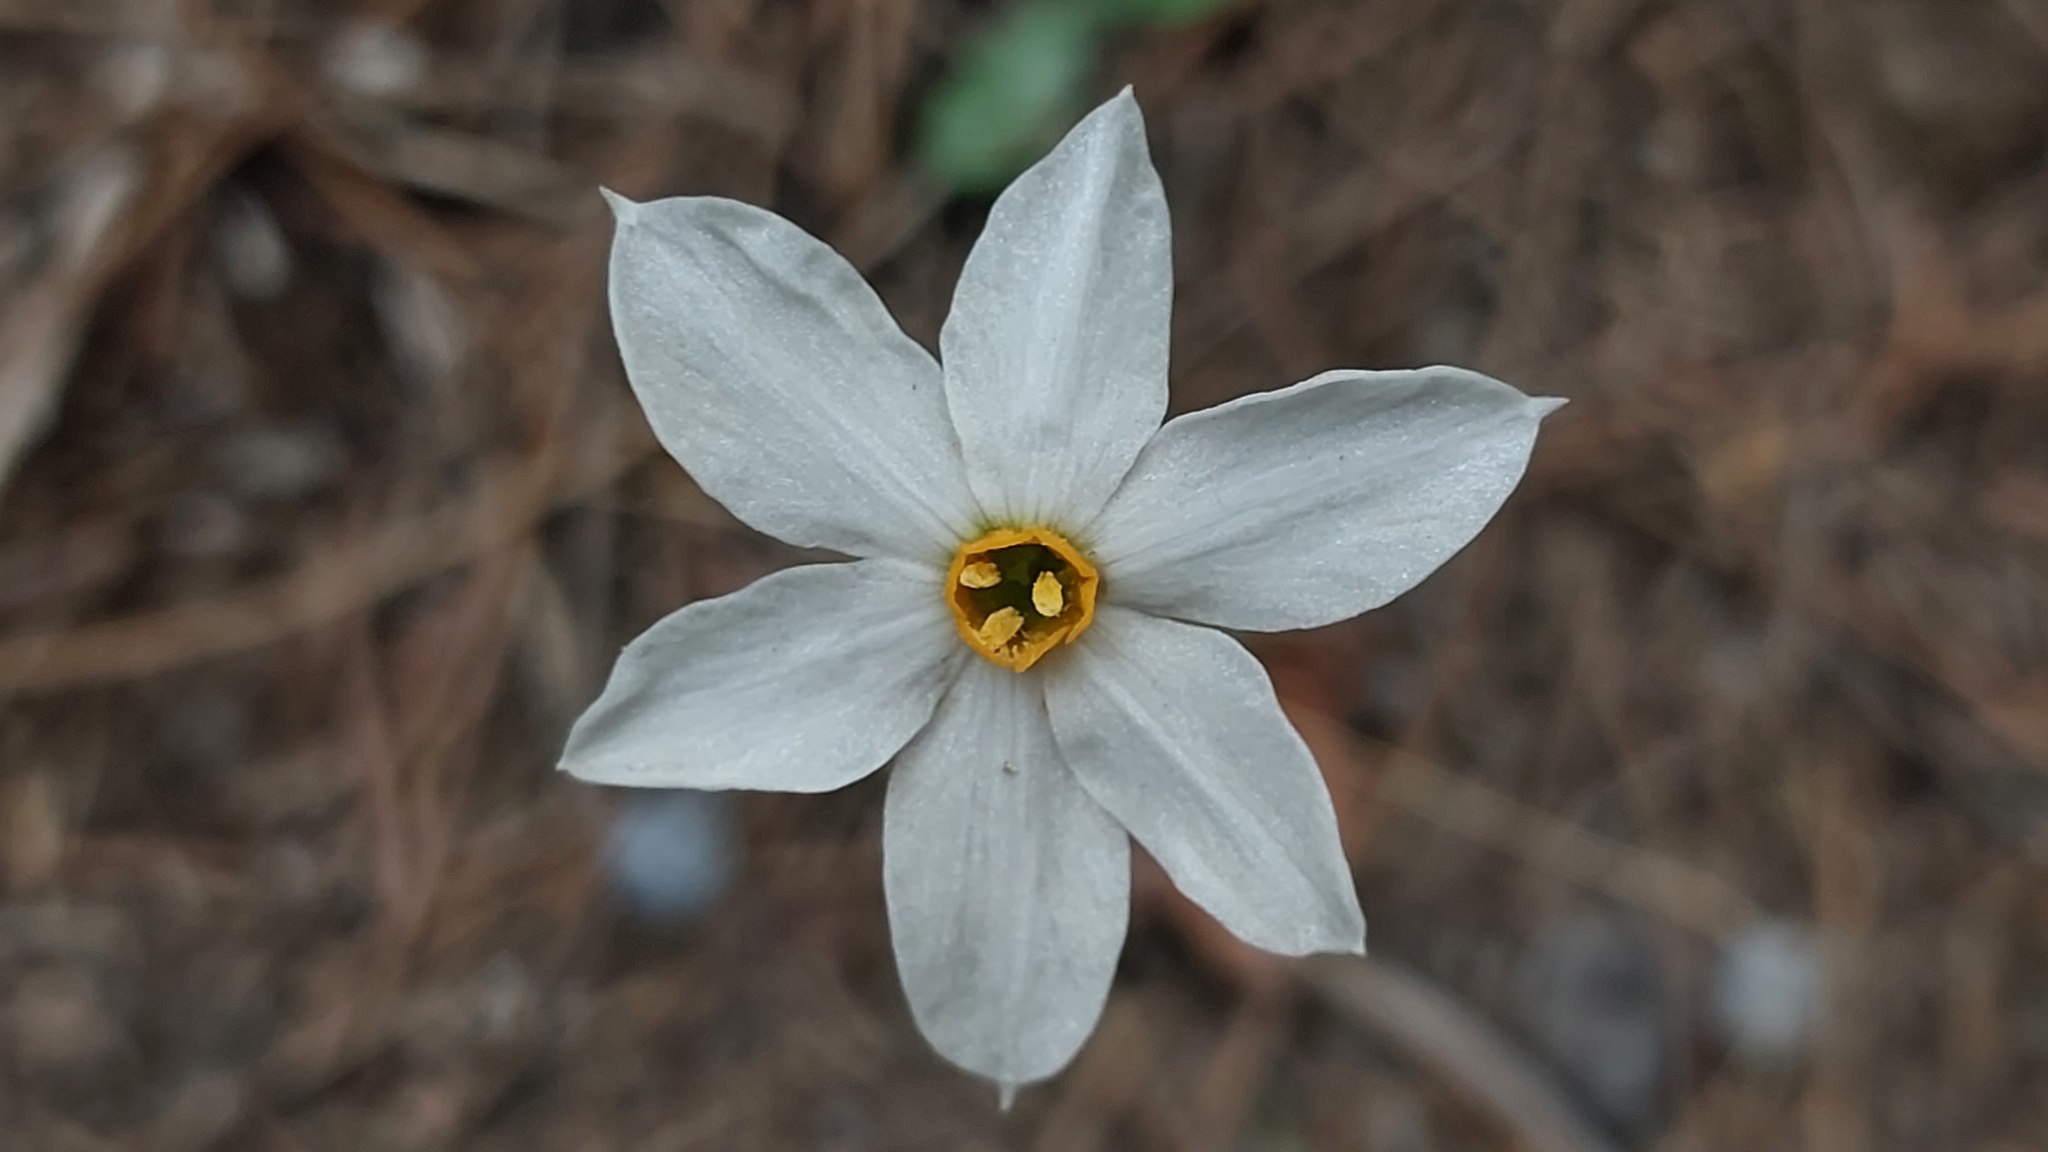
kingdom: Plantae
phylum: Tracheophyta
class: Liliopsida
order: Asparagales
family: Amaryllidaceae
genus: Narcissus
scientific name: Narcissus deficiens
